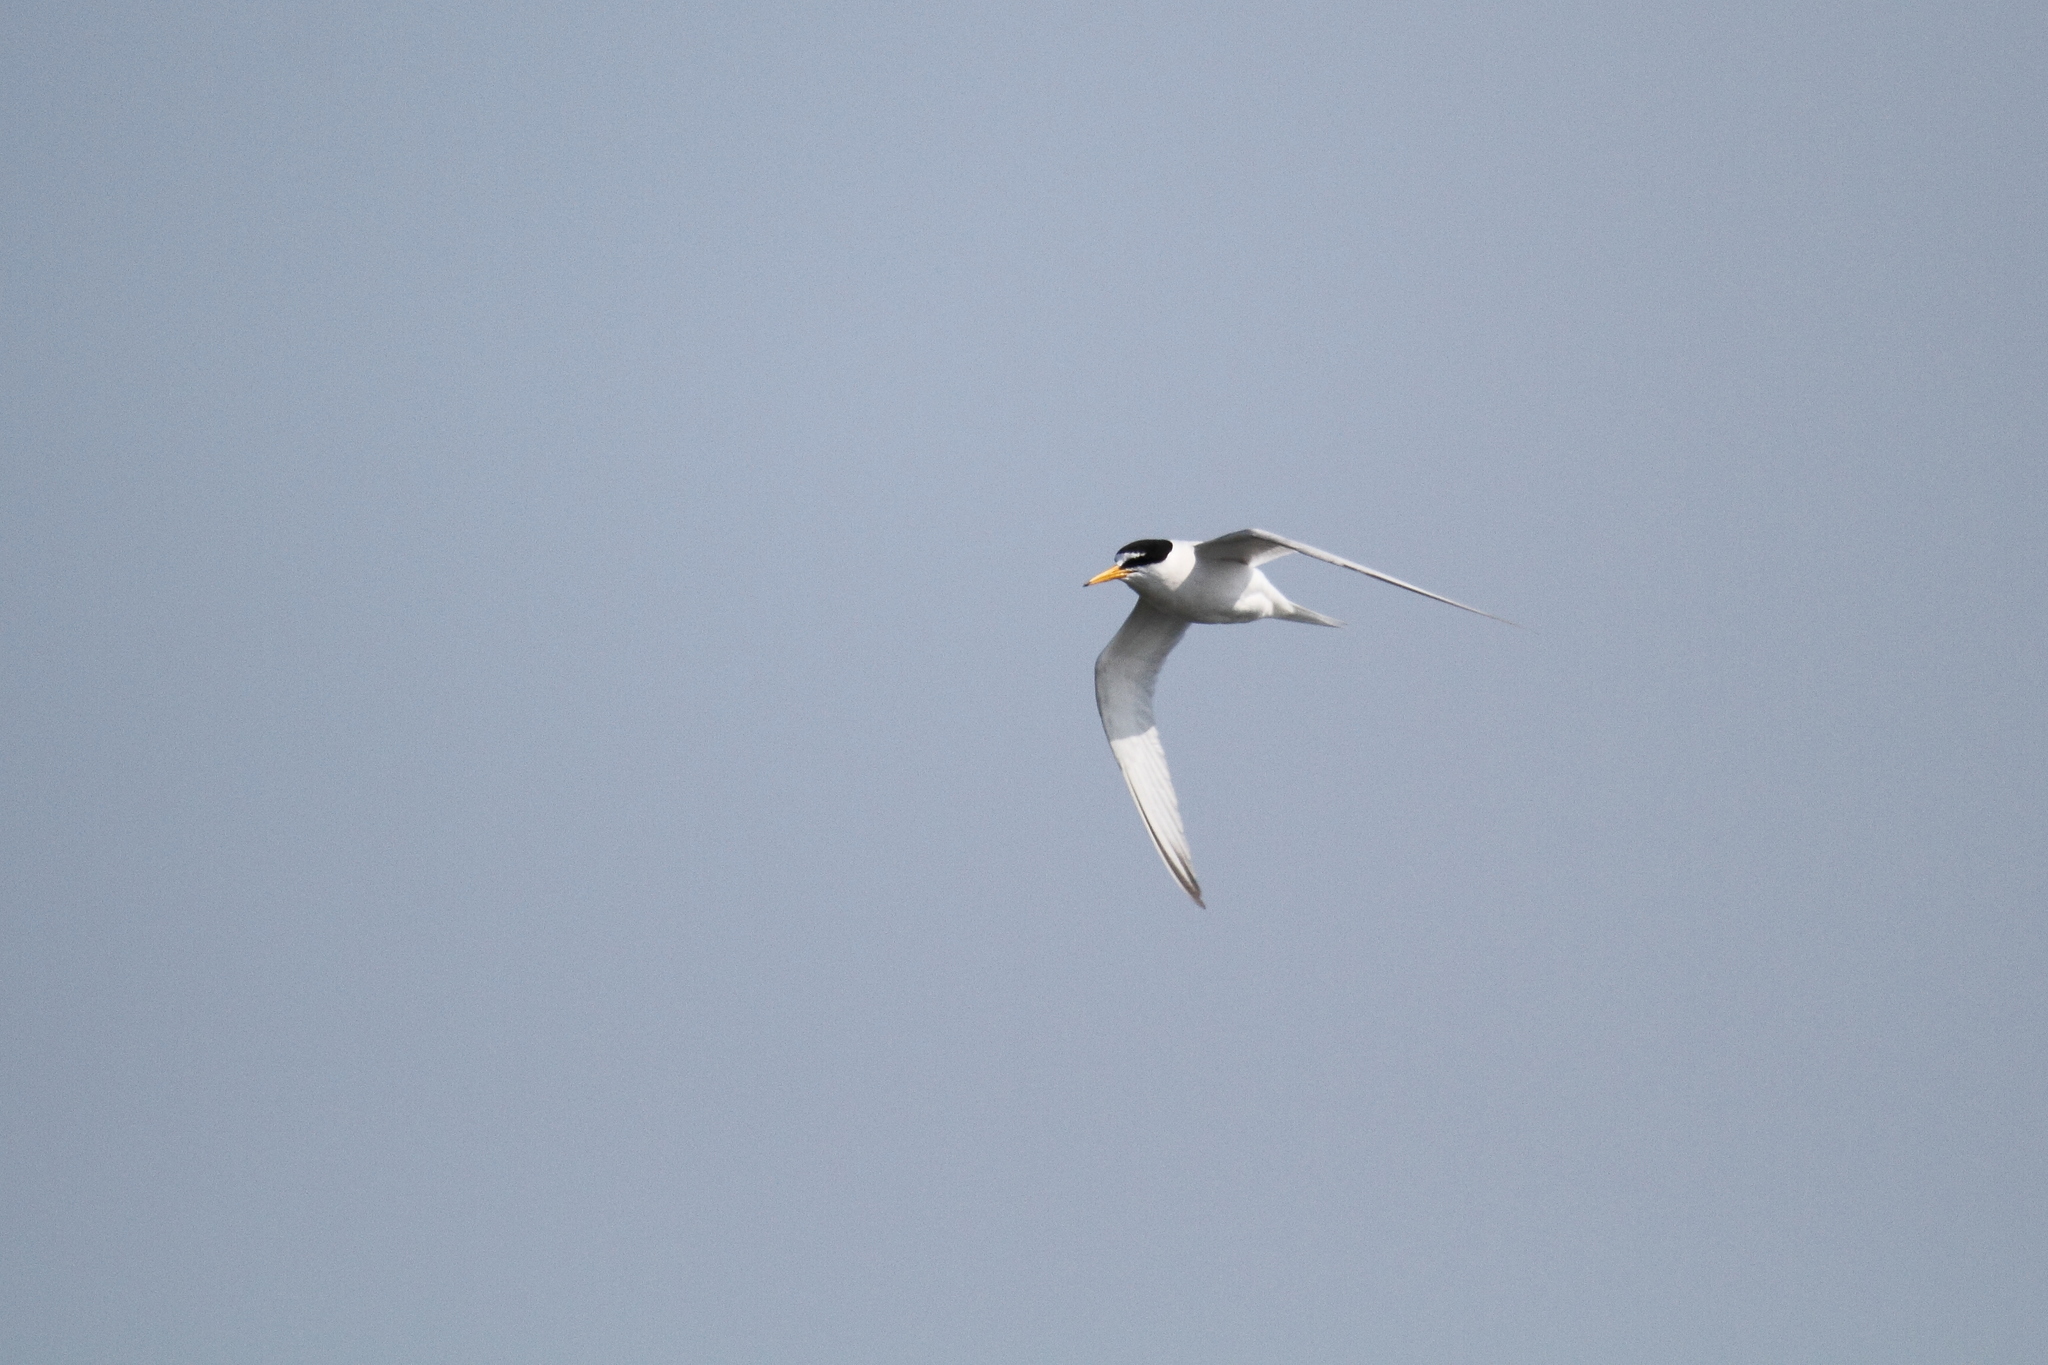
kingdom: Animalia
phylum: Chordata
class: Aves
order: Charadriiformes
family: Laridae
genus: Sternula
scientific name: Sternula albifrons
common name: Little tern
